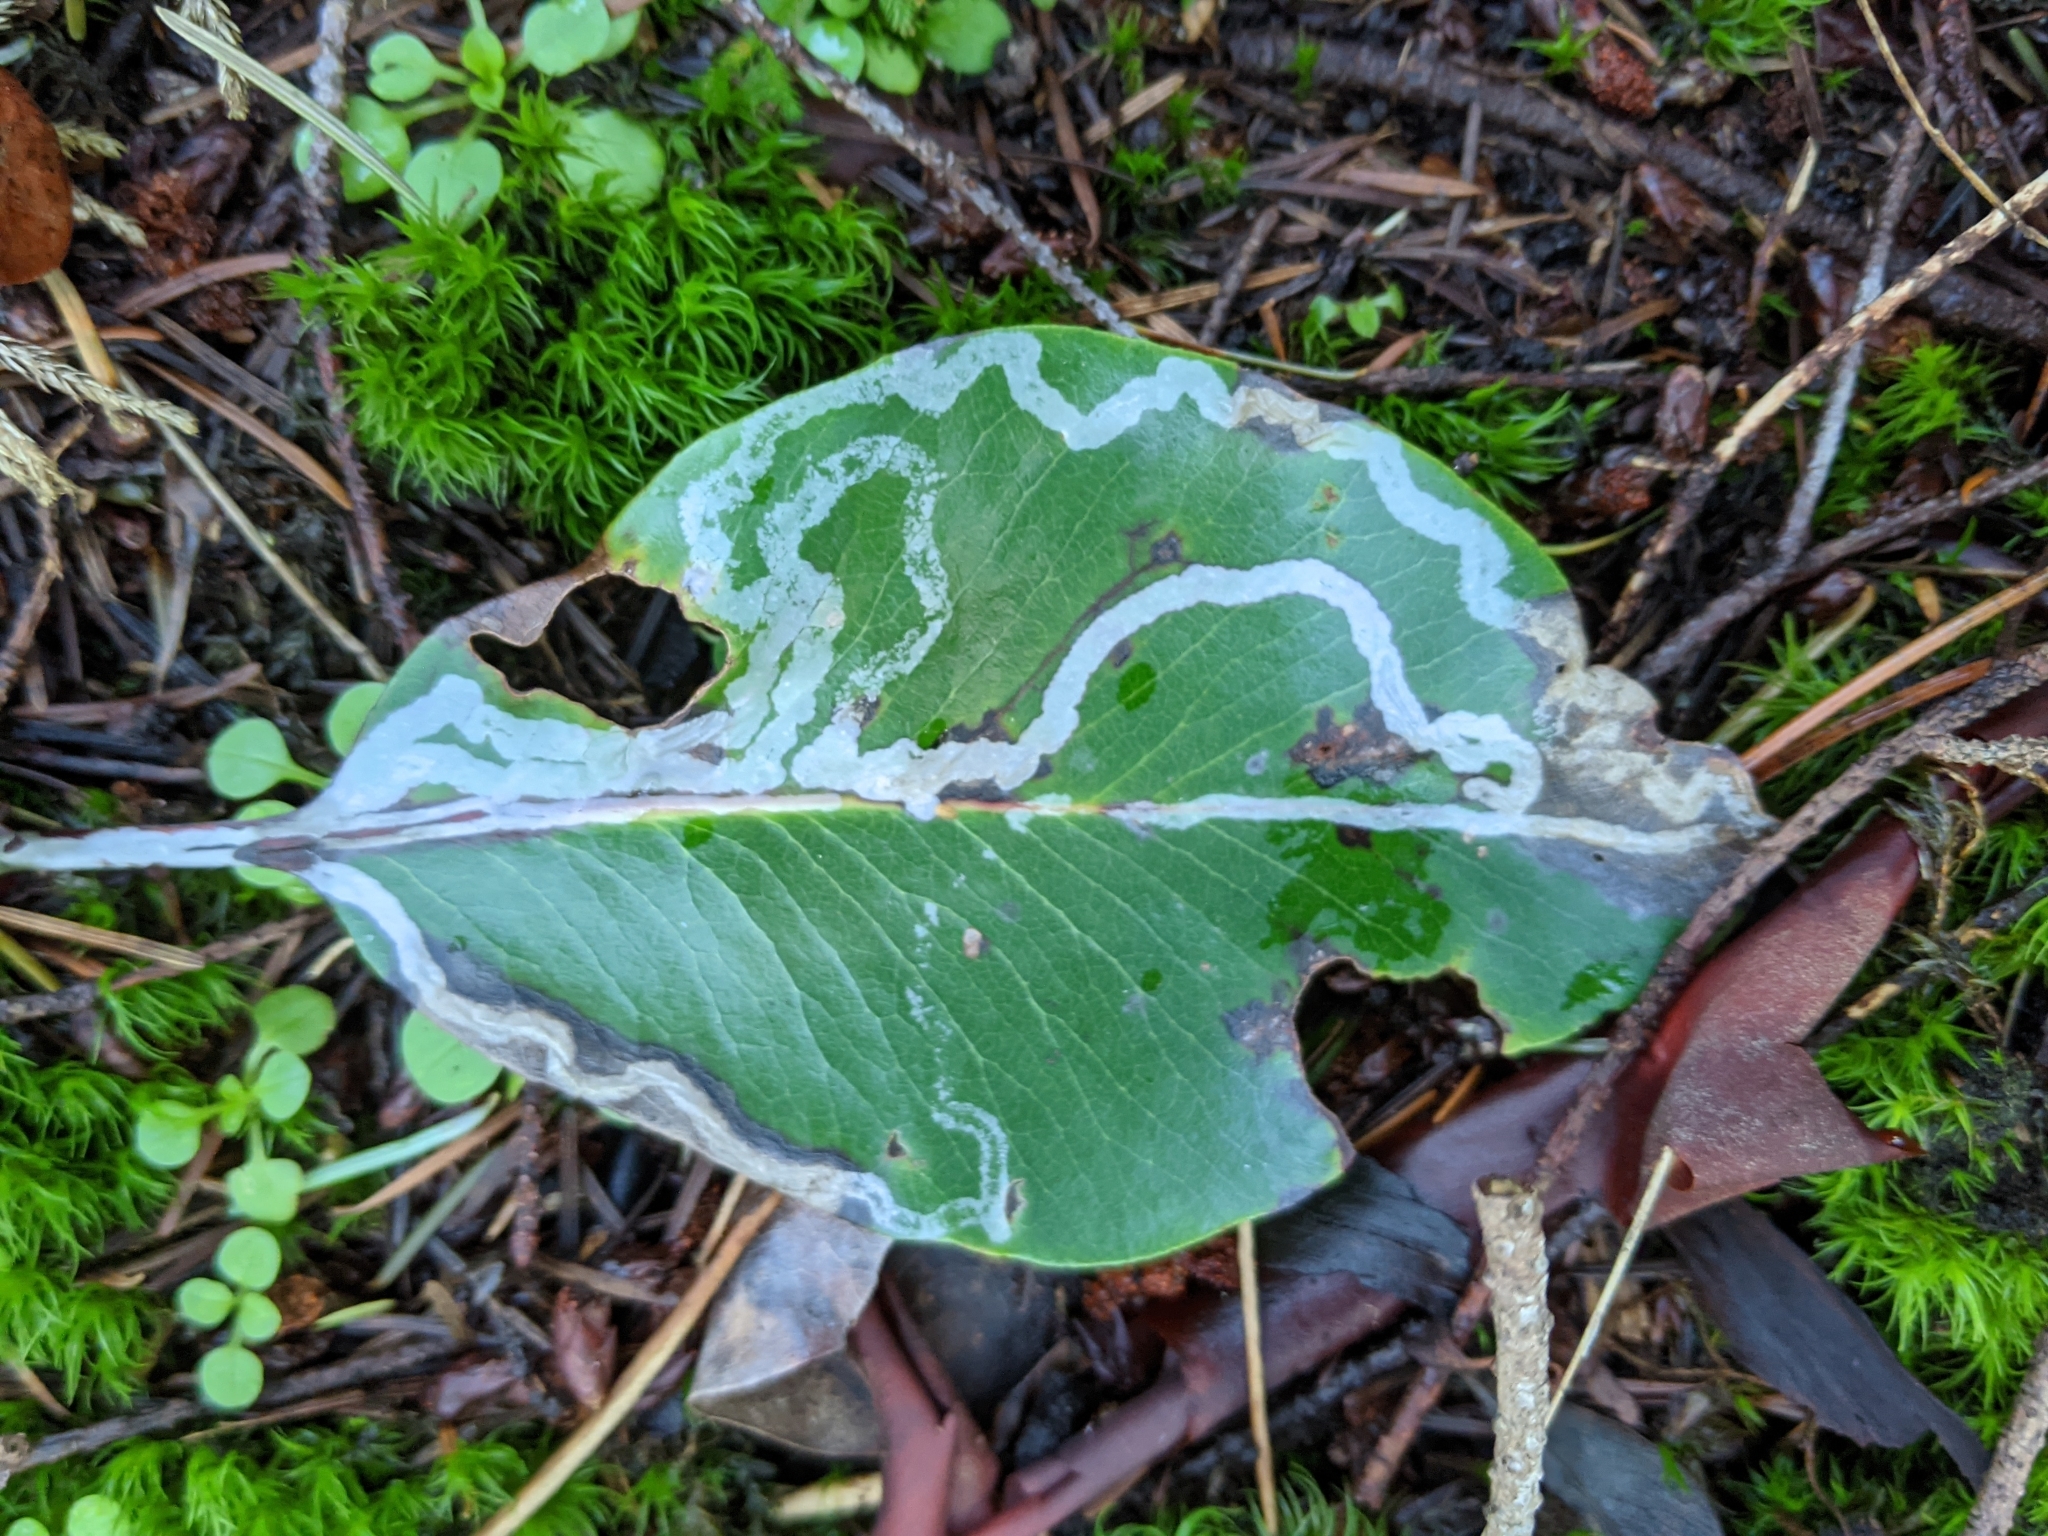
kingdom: Animalia
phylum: Arthropoda
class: Insecta
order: Lepidoptera
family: Gracillariidae
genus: Marmara
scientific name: Marmara arbutiella
